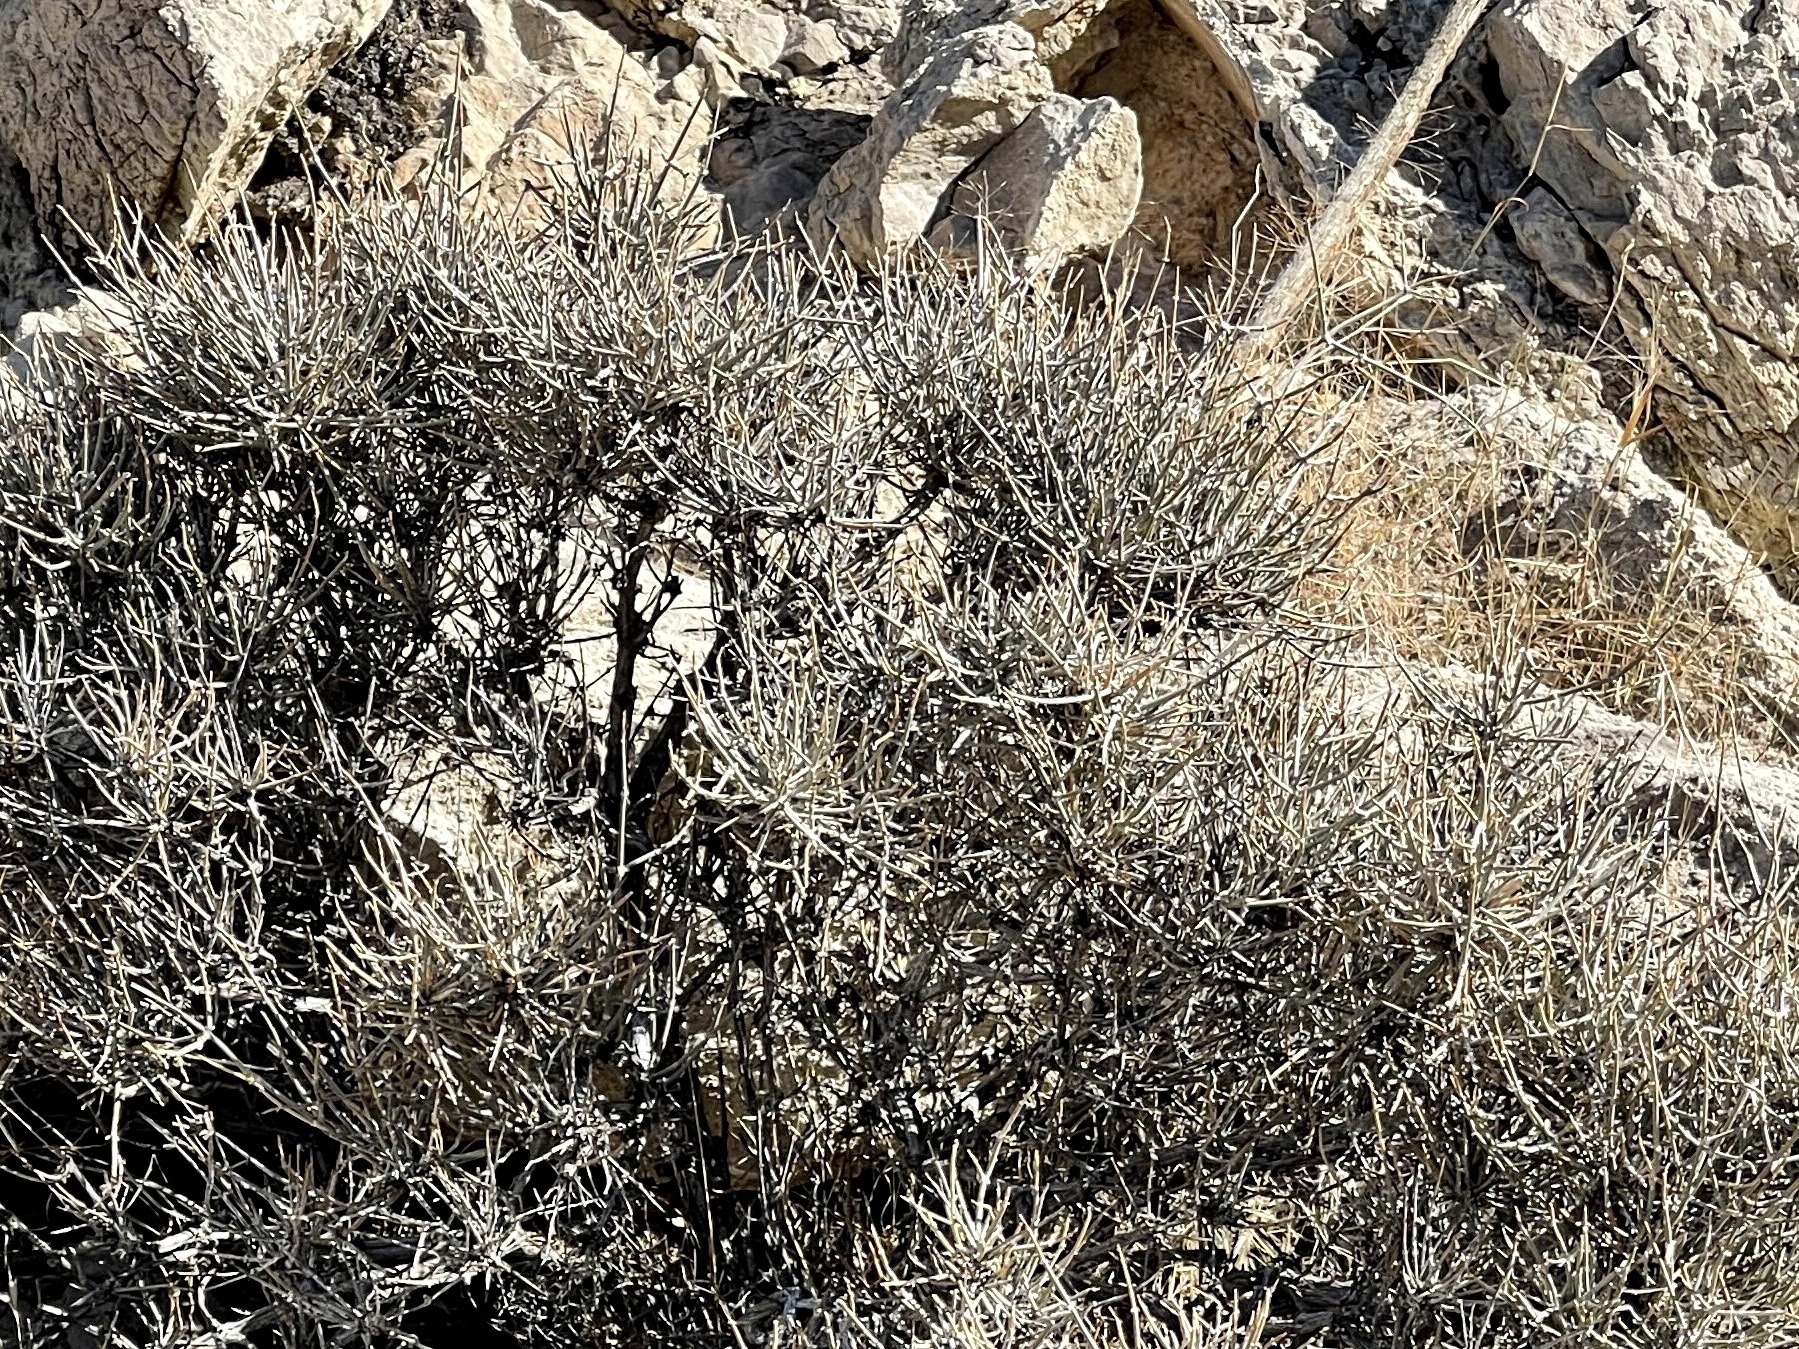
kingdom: Plantae
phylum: Tracheophyta
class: Gnetopsida
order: Ephedrales
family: Ephedraceae
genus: Ephedra
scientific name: Ephedra nevadensis
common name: Gray ephedra
